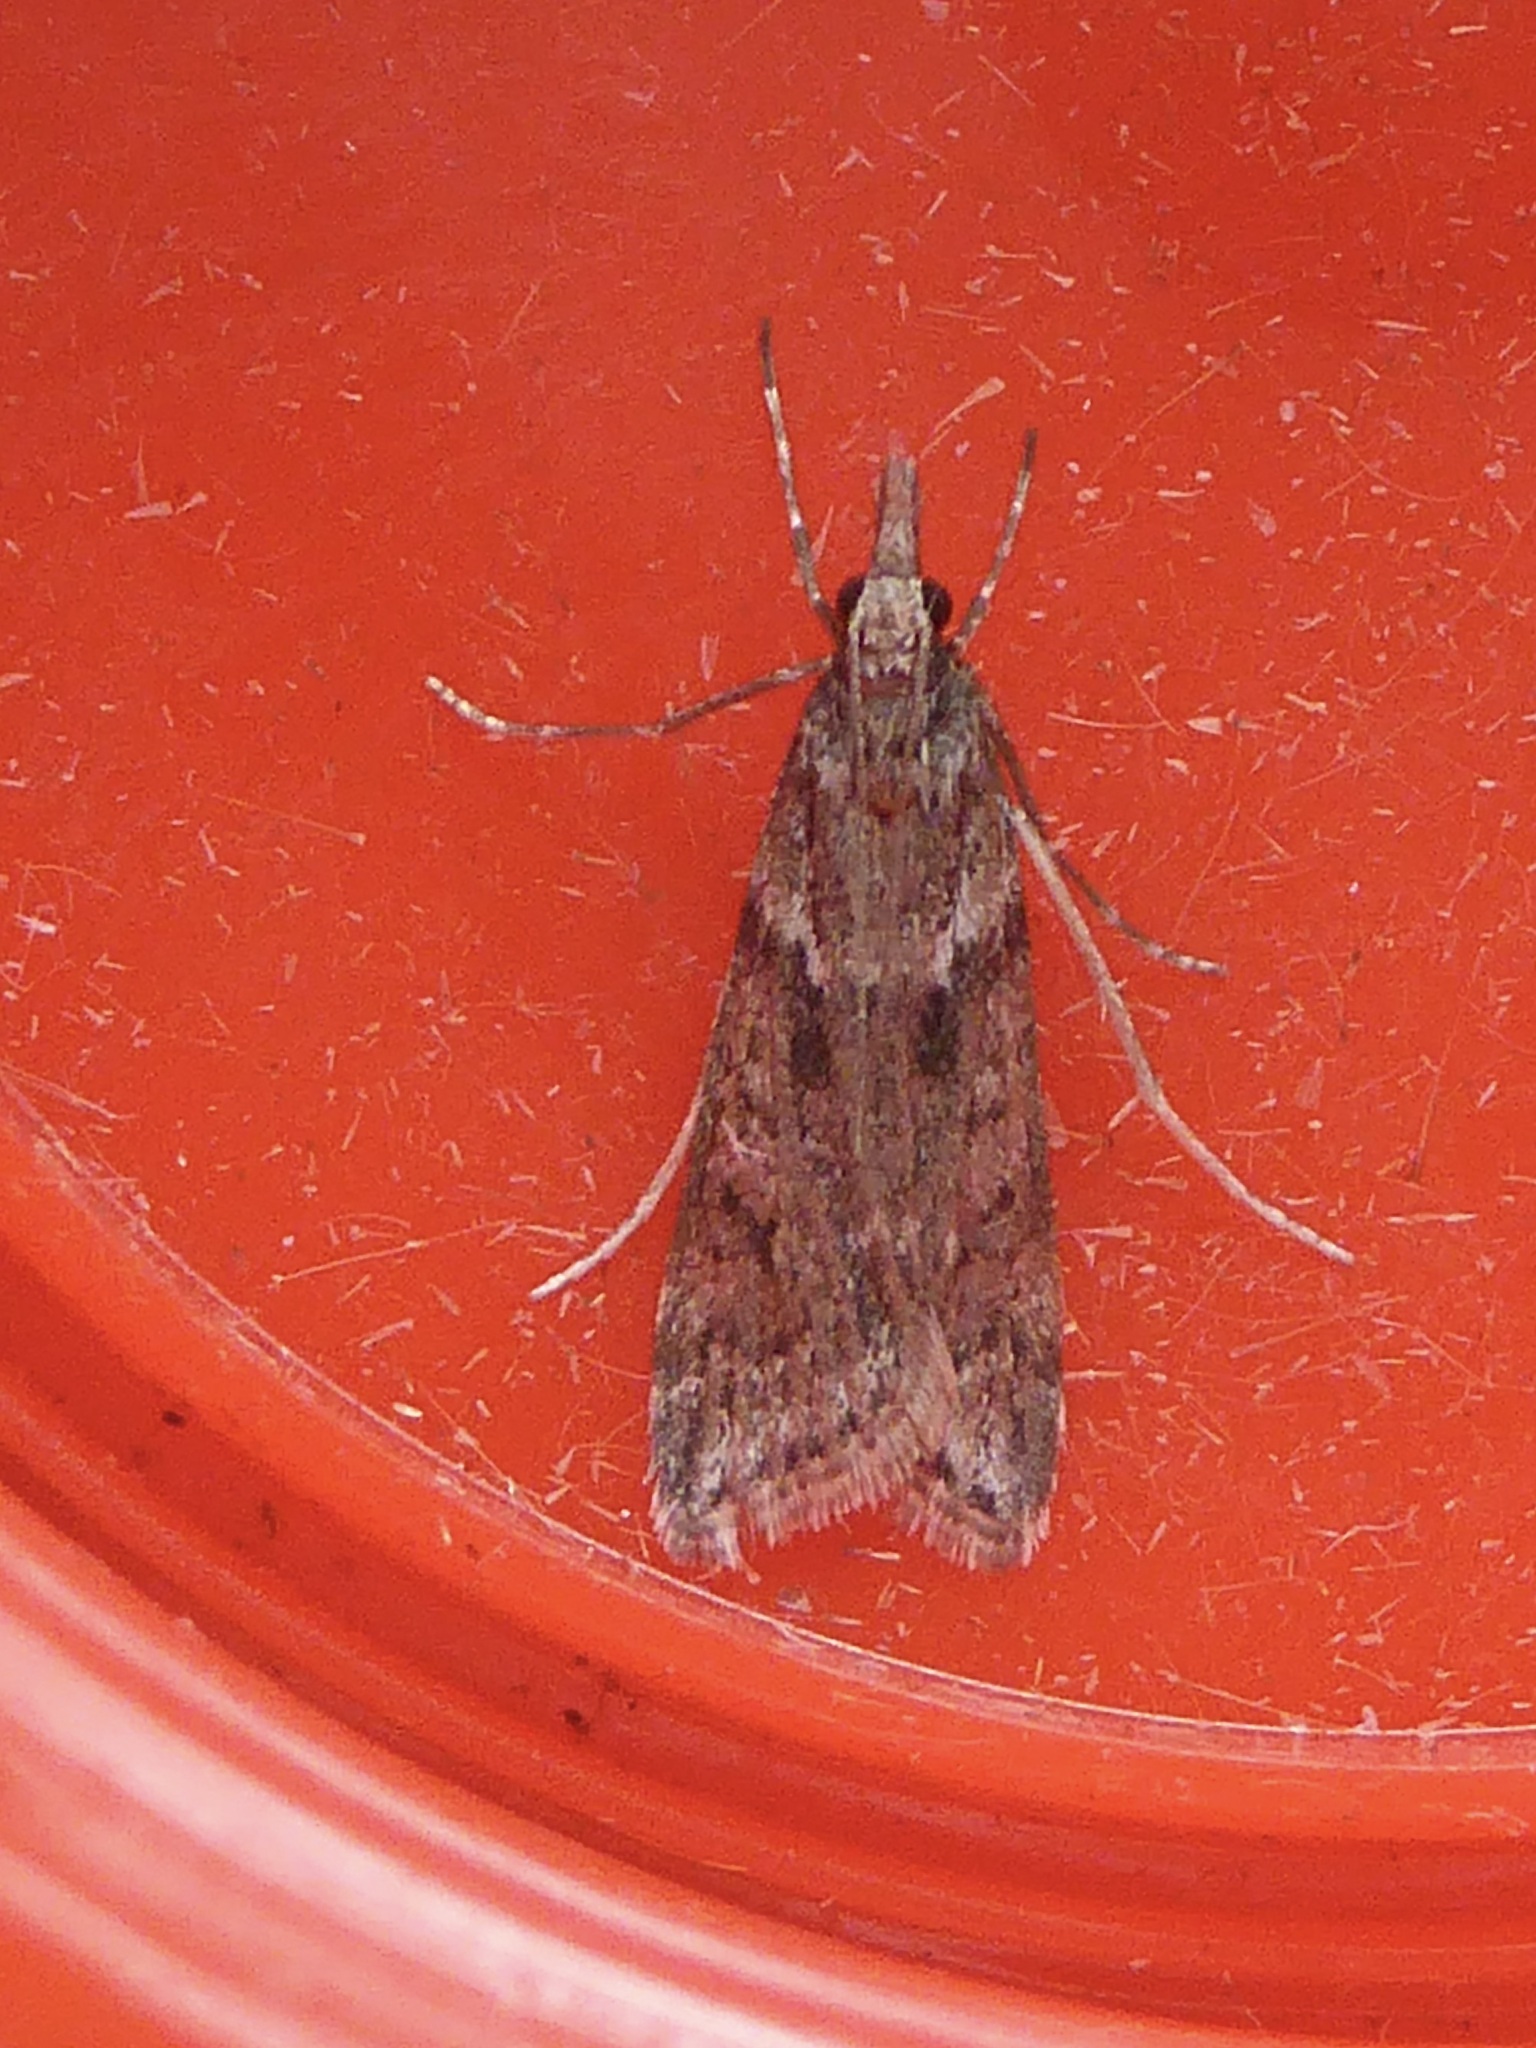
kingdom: Animalia
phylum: Arthropoda
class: Insecta
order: Lepidoptera
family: Crambidae
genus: Eudonia
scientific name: Eudonia angustea
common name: Narrow-winged grey
